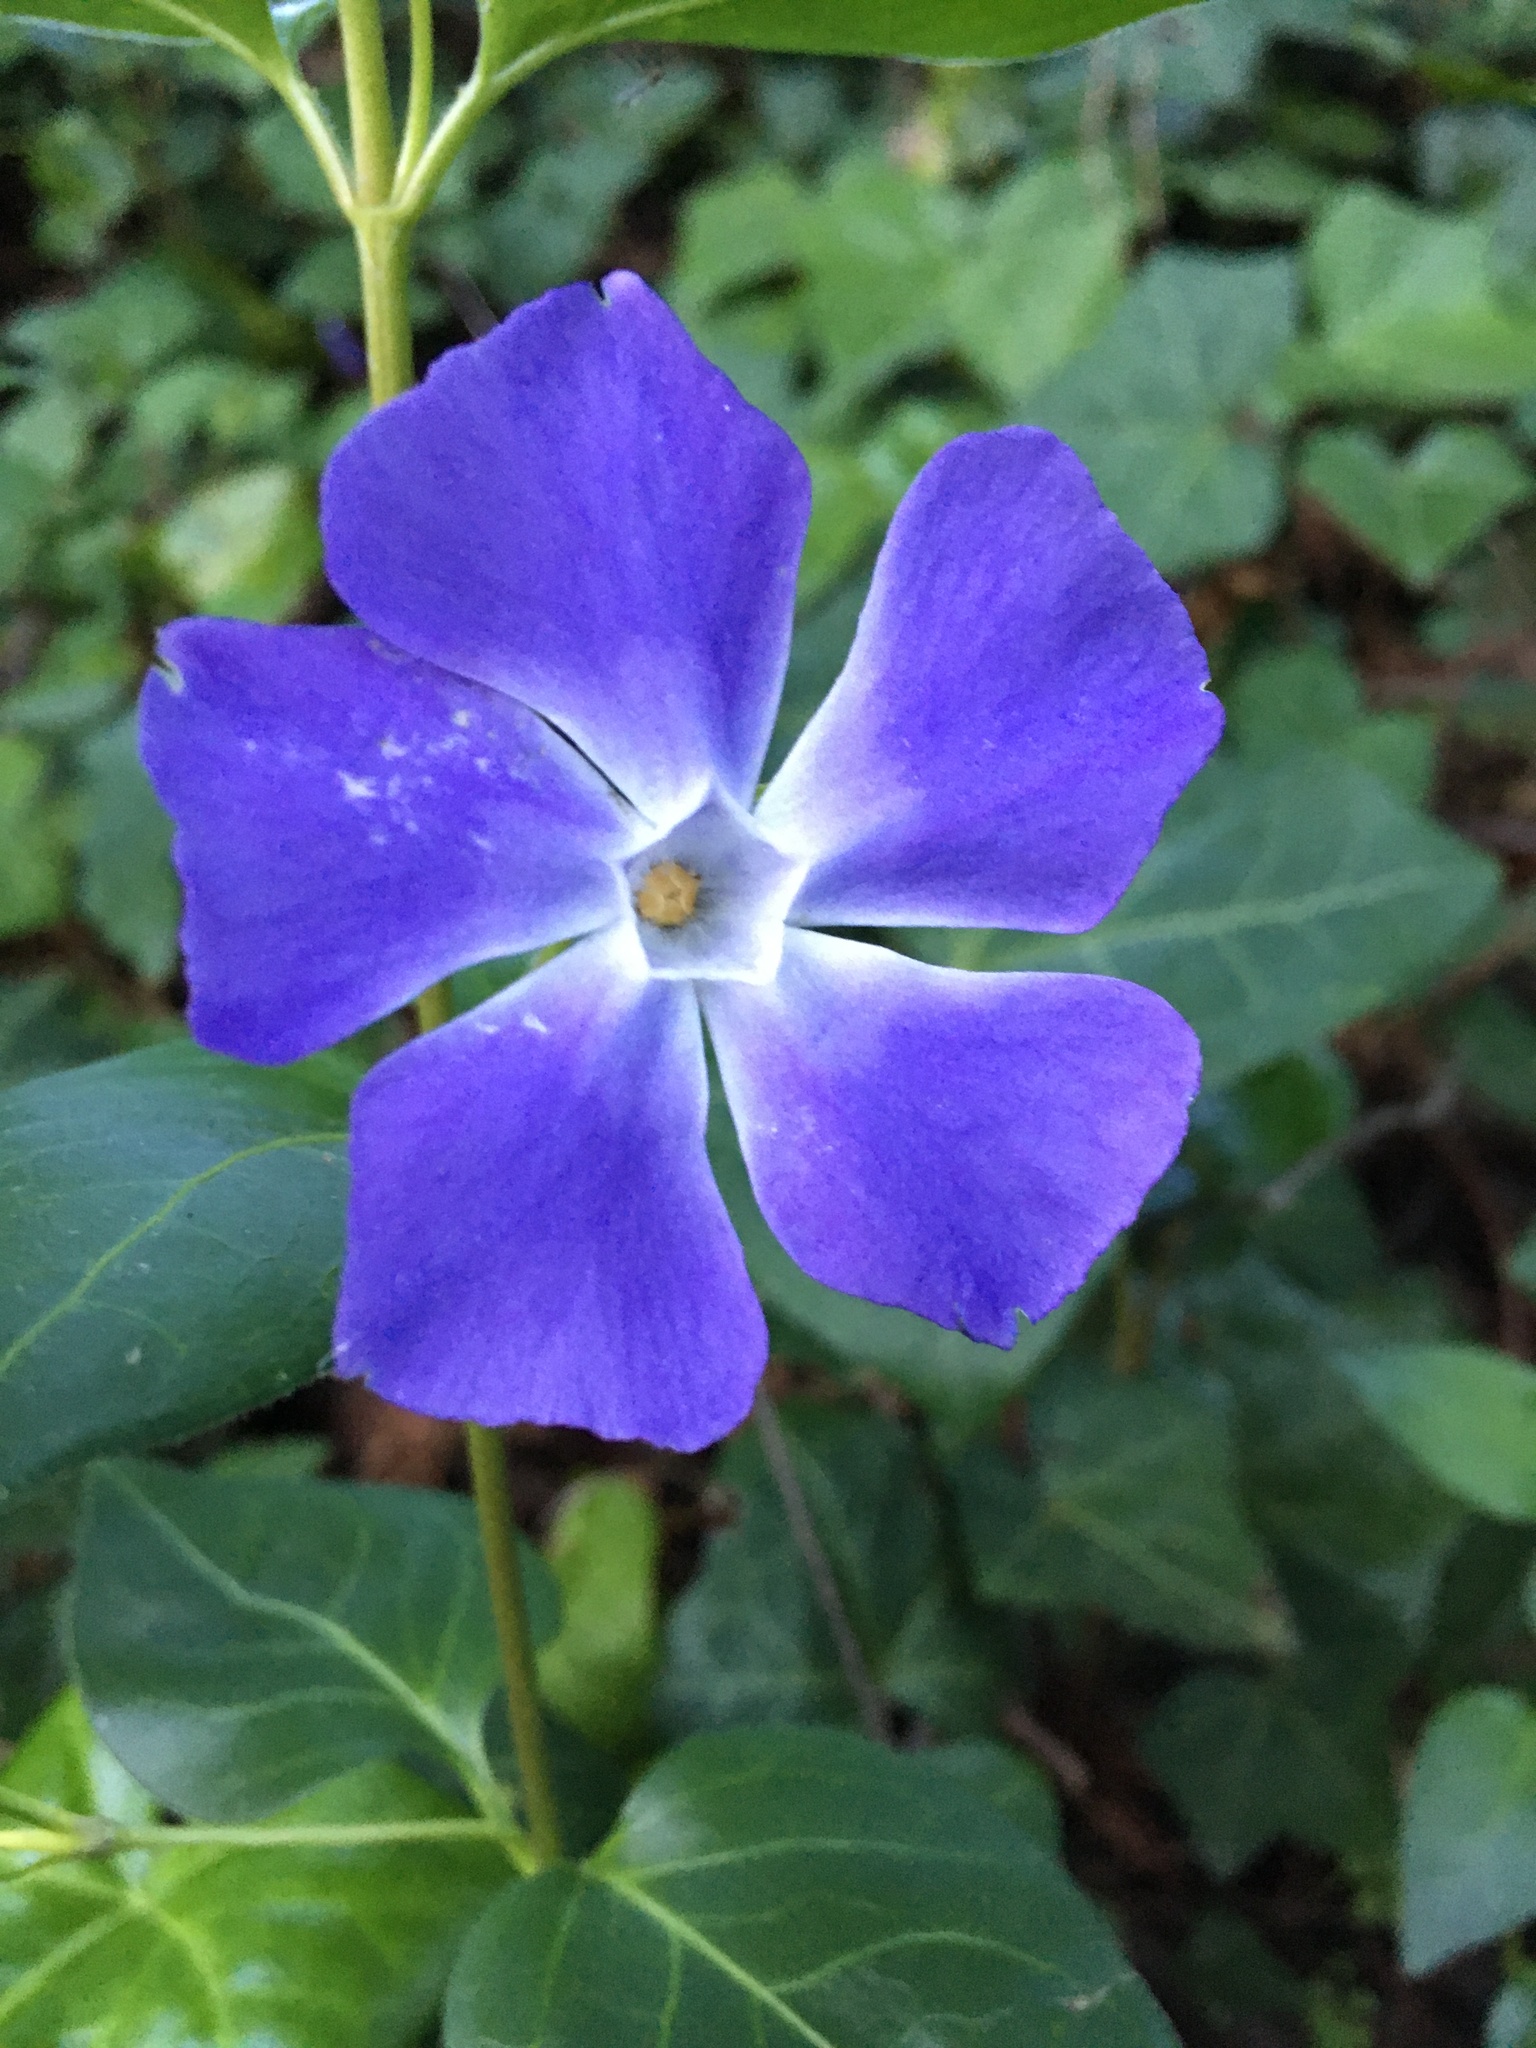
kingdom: Plantae
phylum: Tracheophyta
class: Magnoliopsida
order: Gentianales
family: Apocynaceae
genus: Vinca
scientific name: Vinca major
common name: Greater periwinkle
